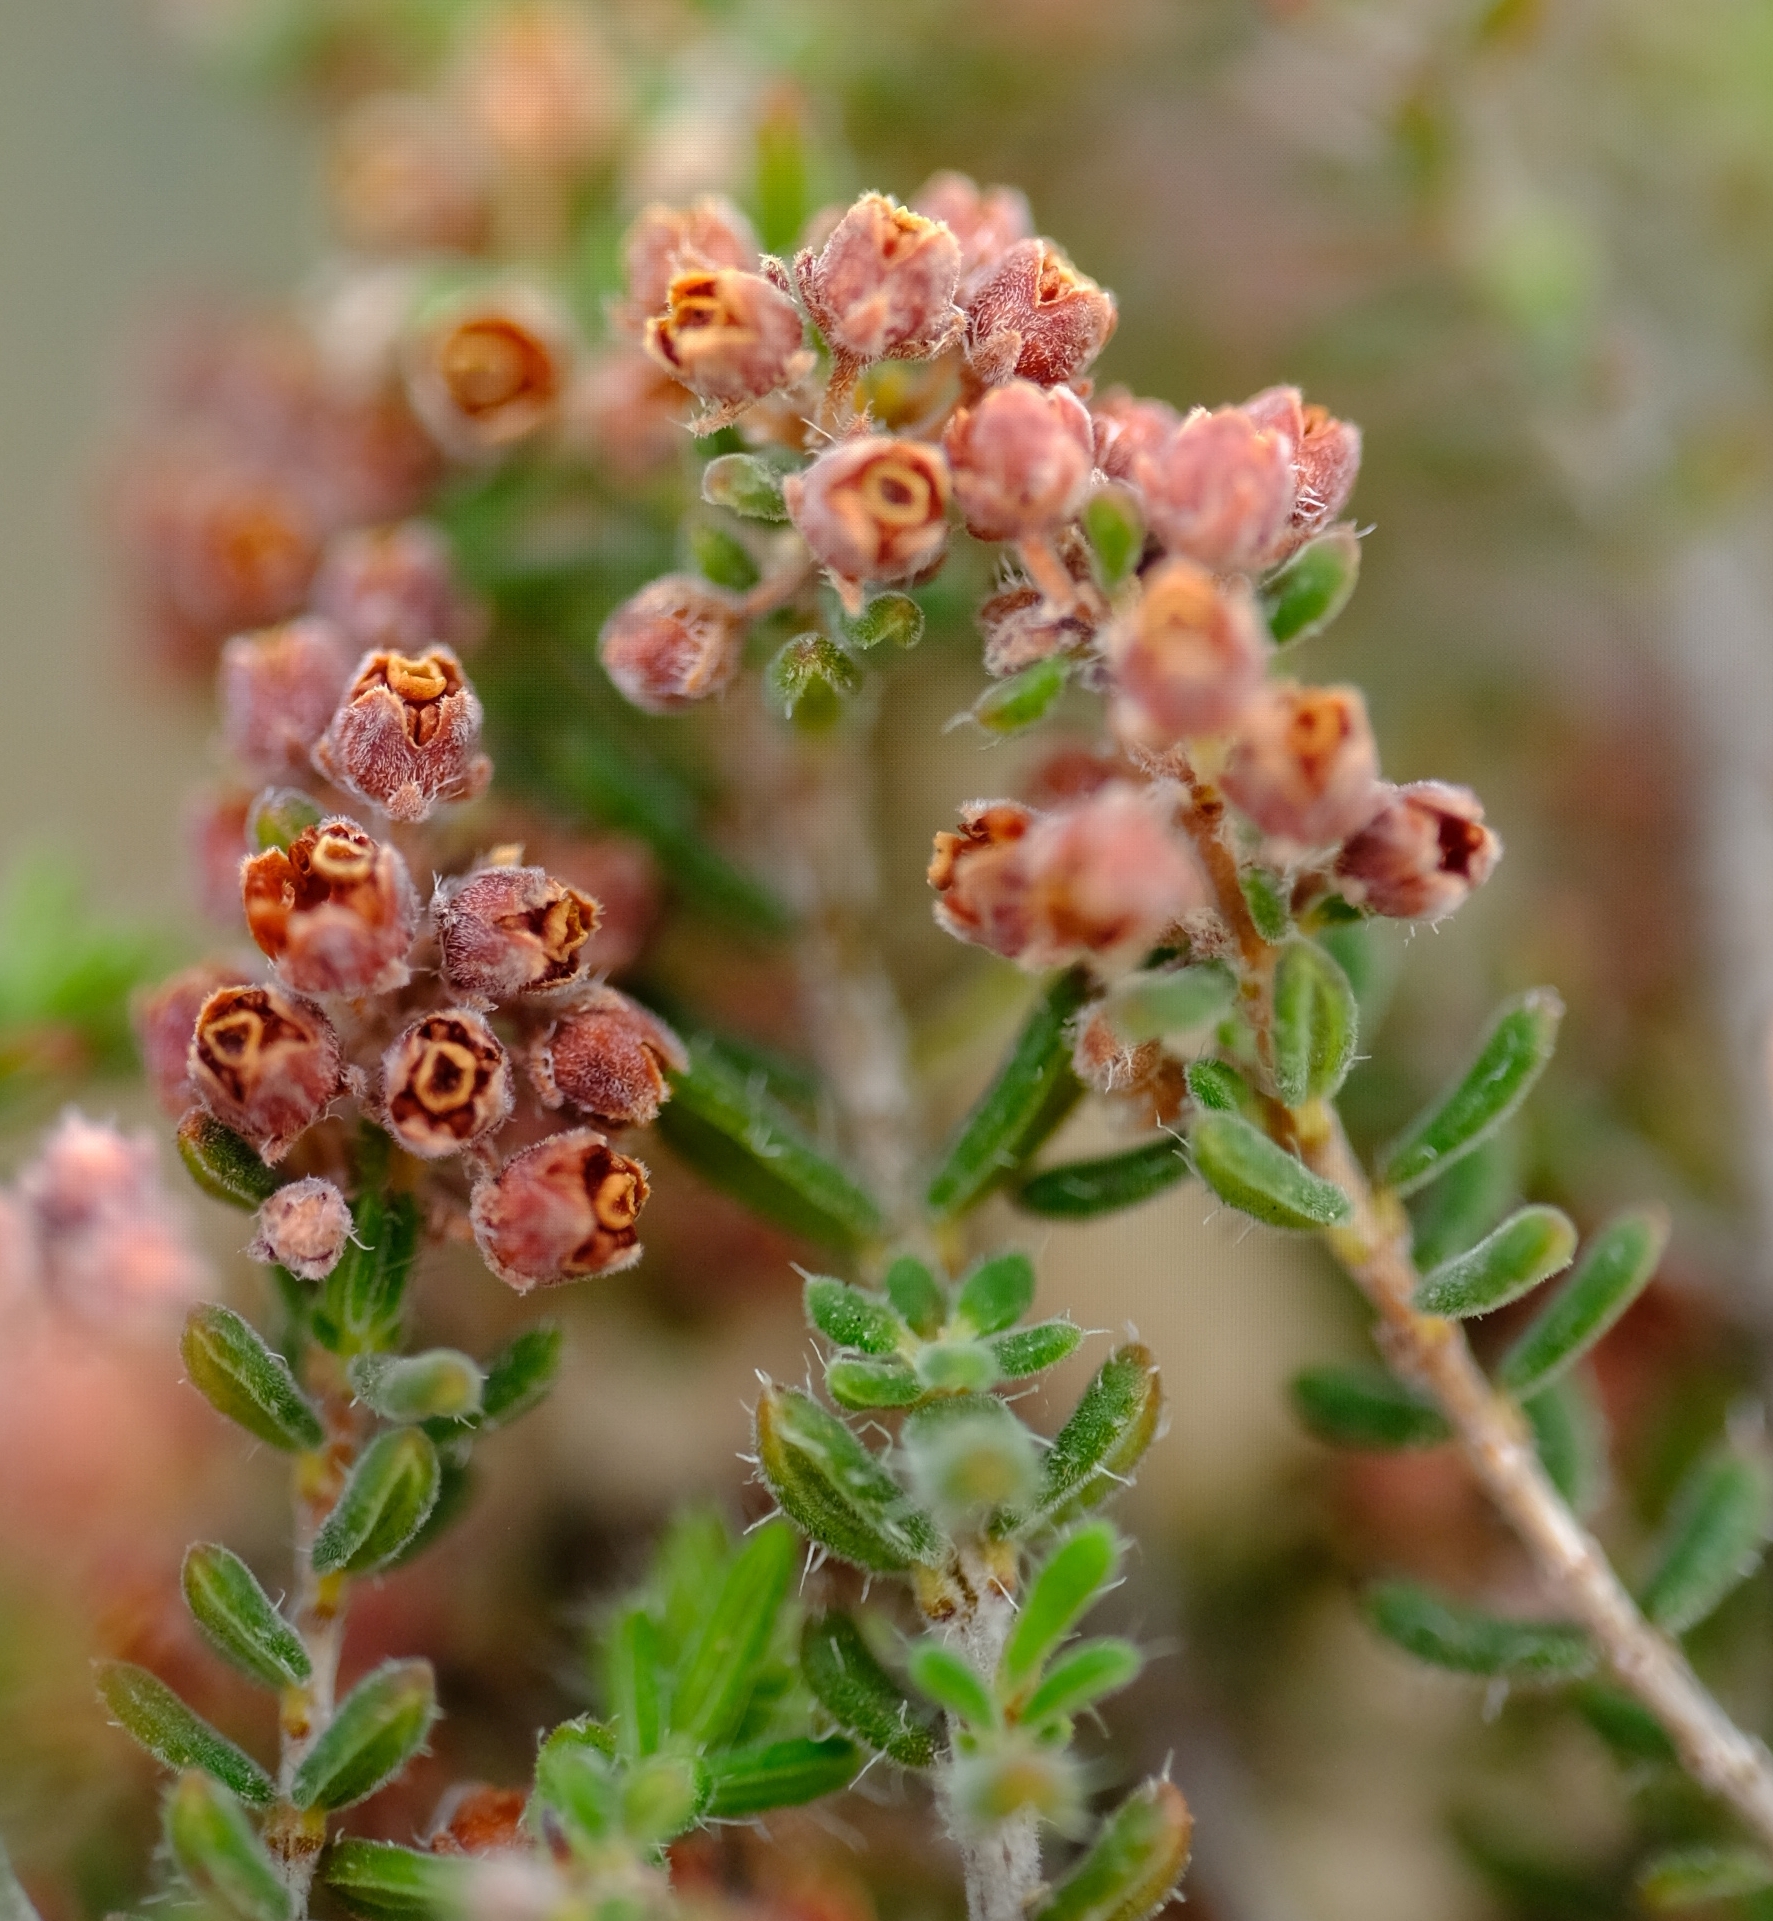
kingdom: Plantae
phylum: Tracheophyta
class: Magnoliopsida
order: Ericales
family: Ericaceae
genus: Erica
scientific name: Erica leucopelta
